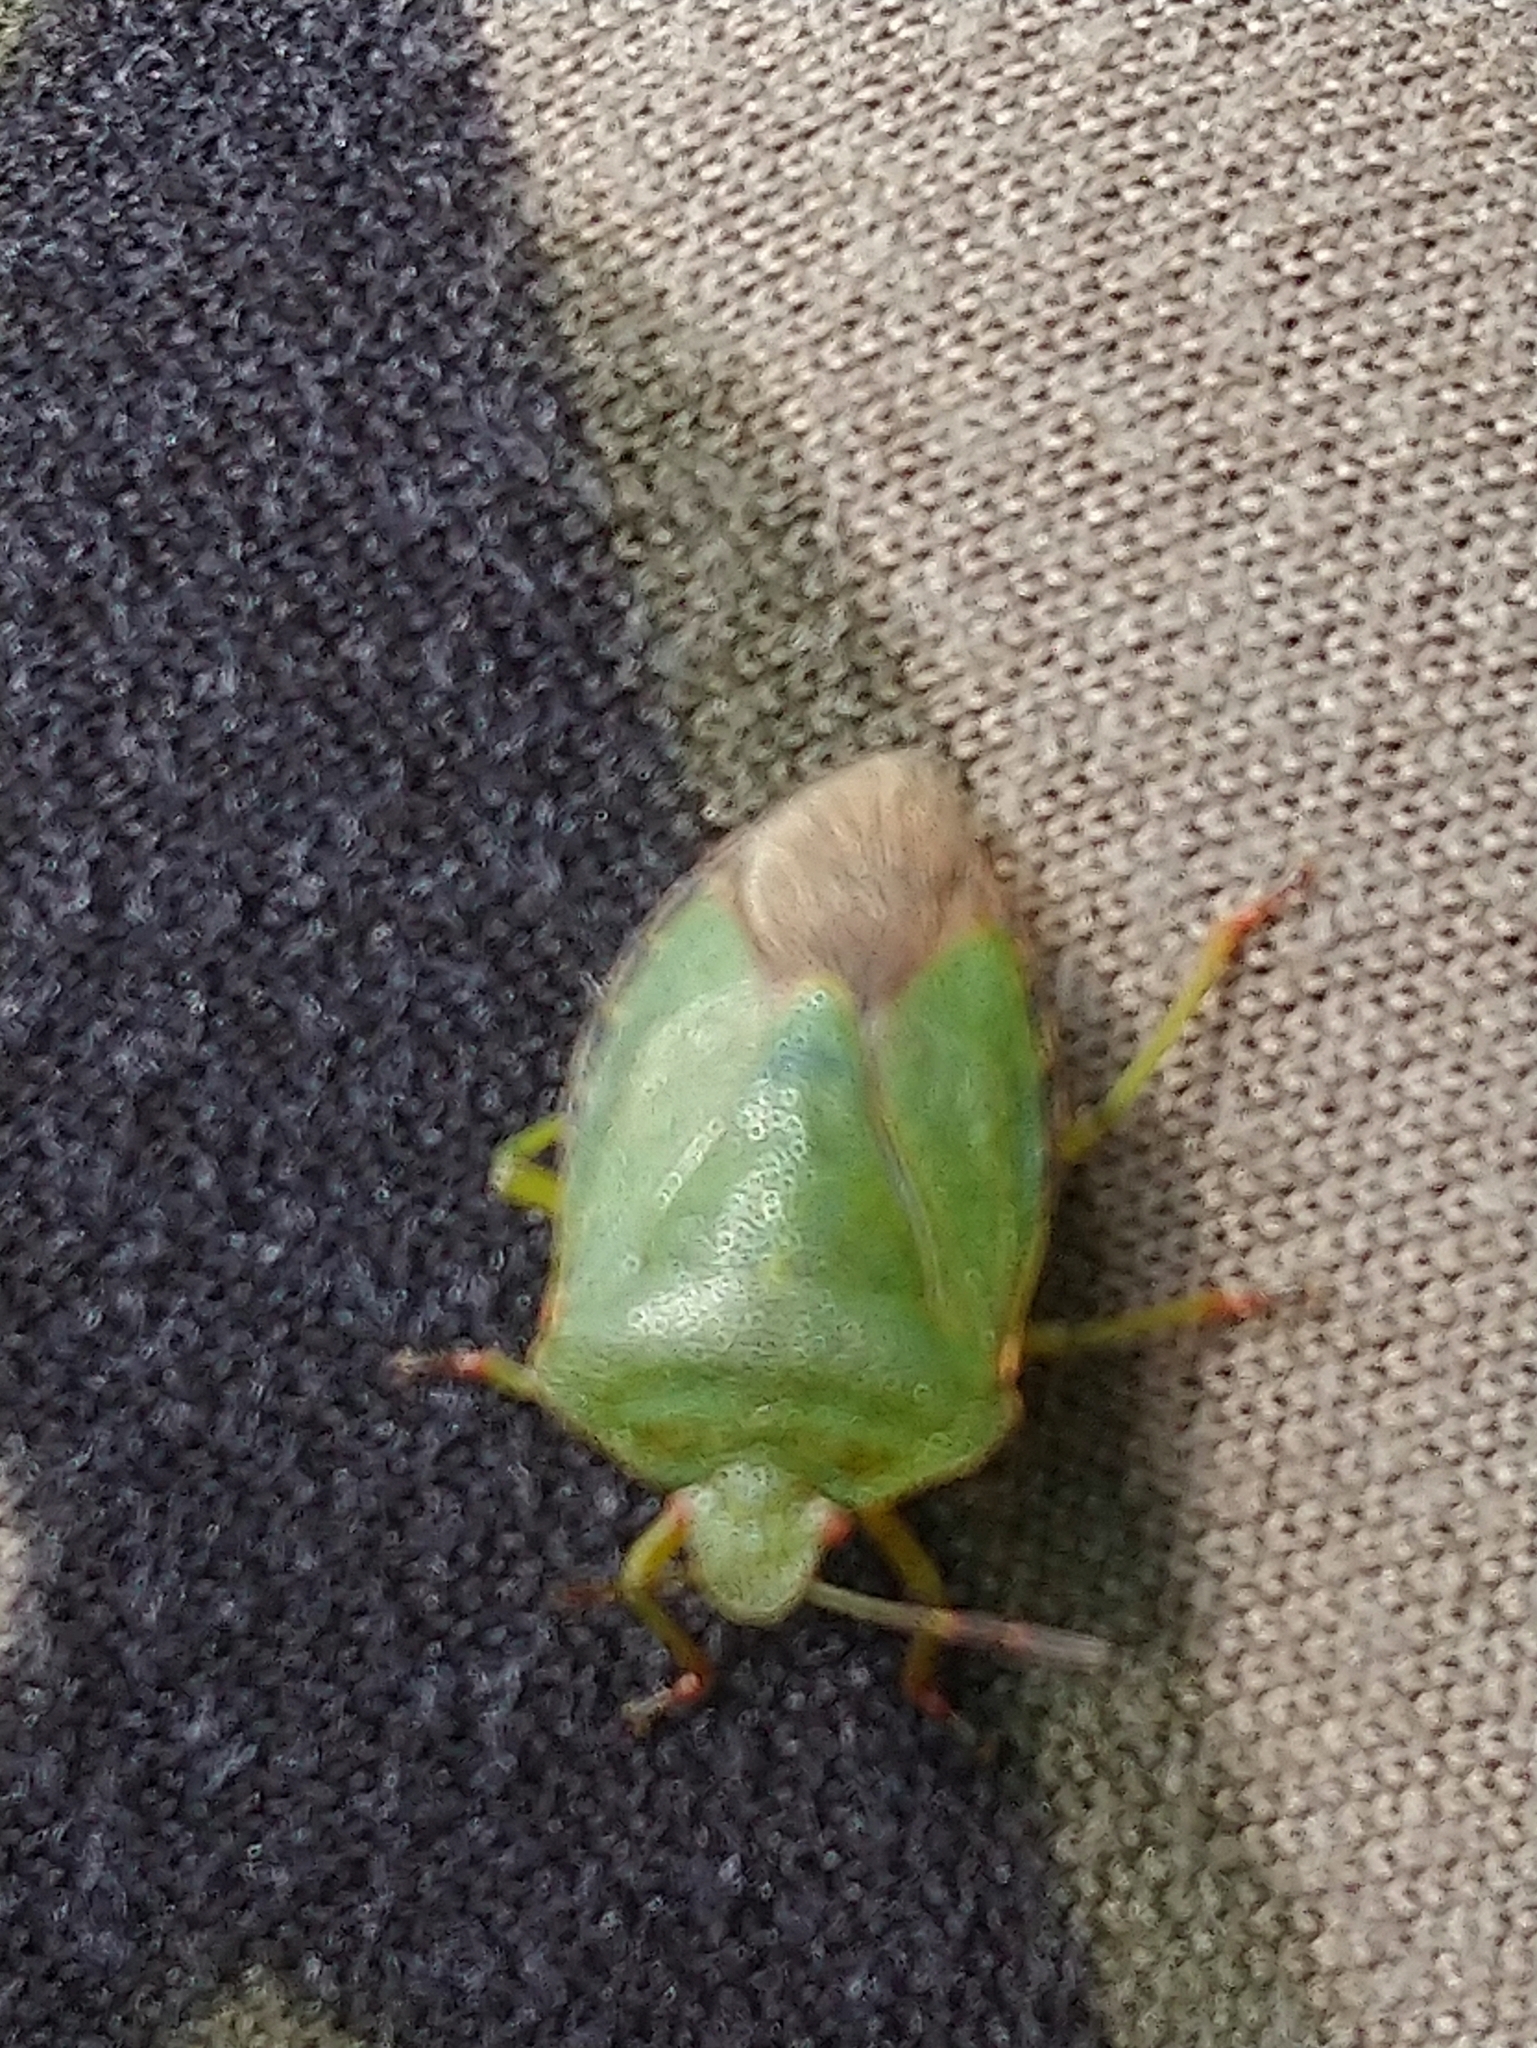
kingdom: Animalia
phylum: Arthropoda
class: Insecta
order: Hemiptera
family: Pentatomidae
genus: Palomena
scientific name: Palomena prasina
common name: Green shieldbug
